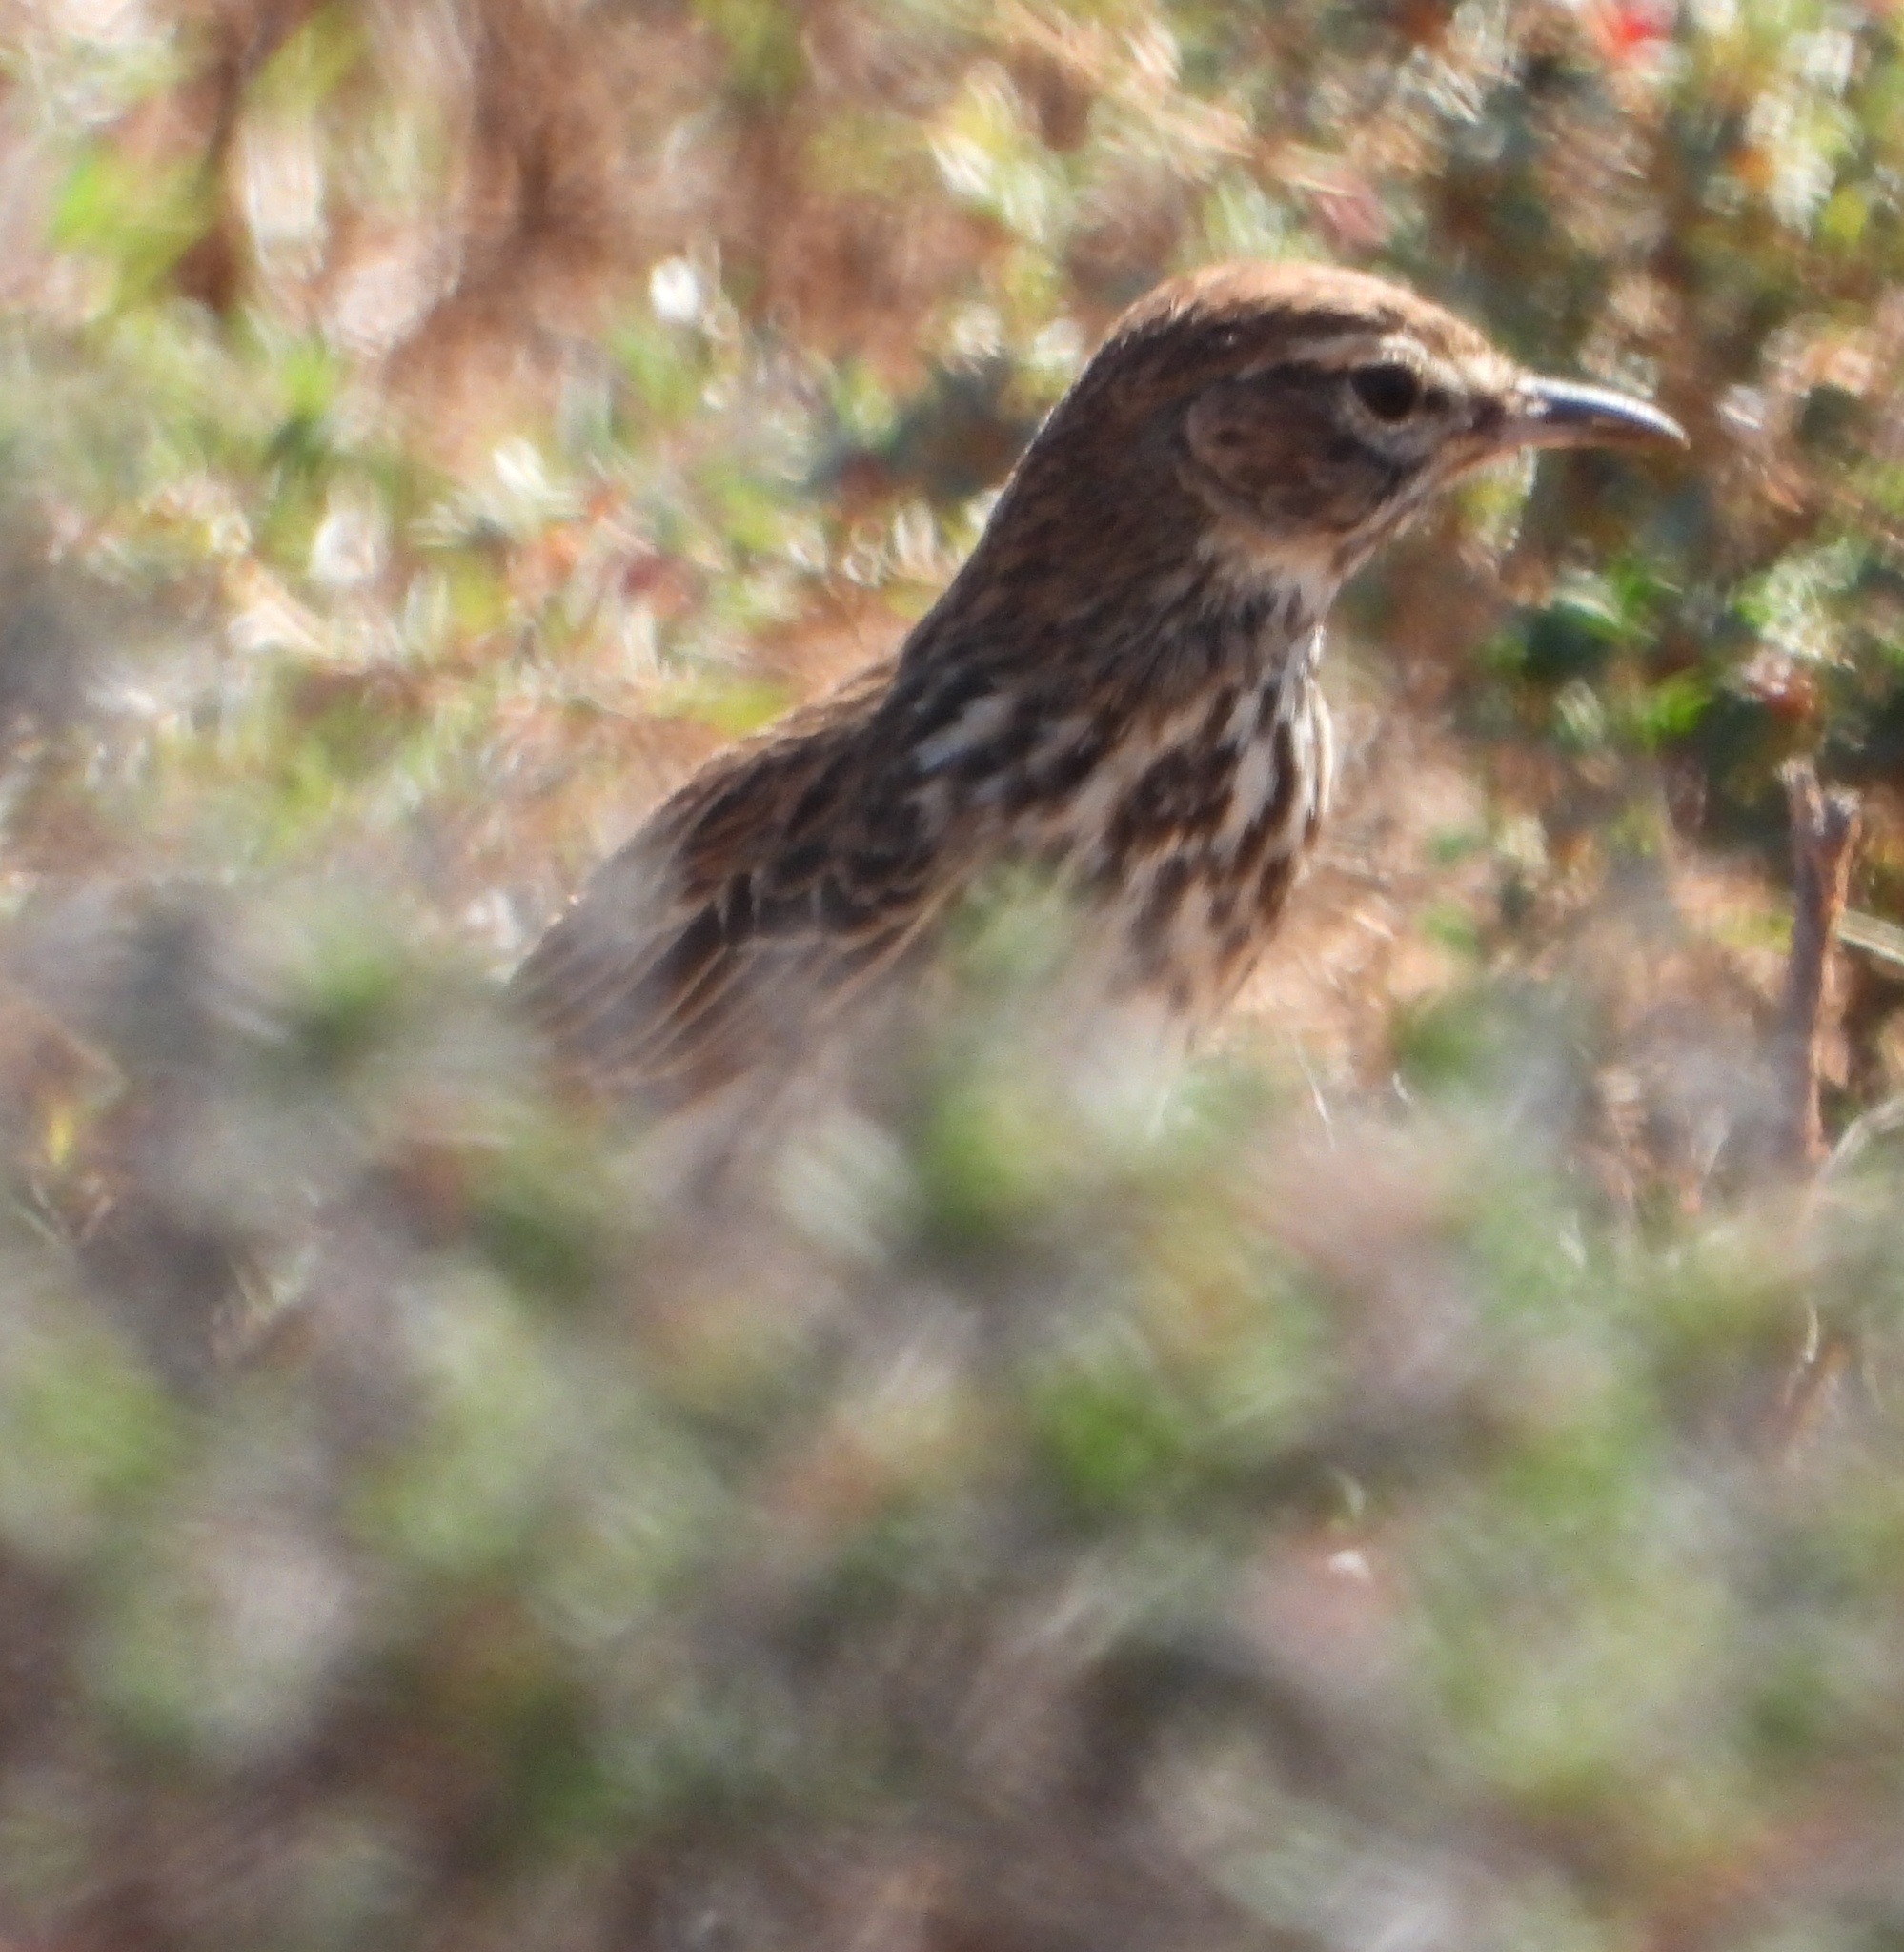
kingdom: Animalia
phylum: Chordata
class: Aves
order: Passeriformes
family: Alaudidae
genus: Calendulauda
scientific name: Calendulauda albescens
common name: Karoo lark
